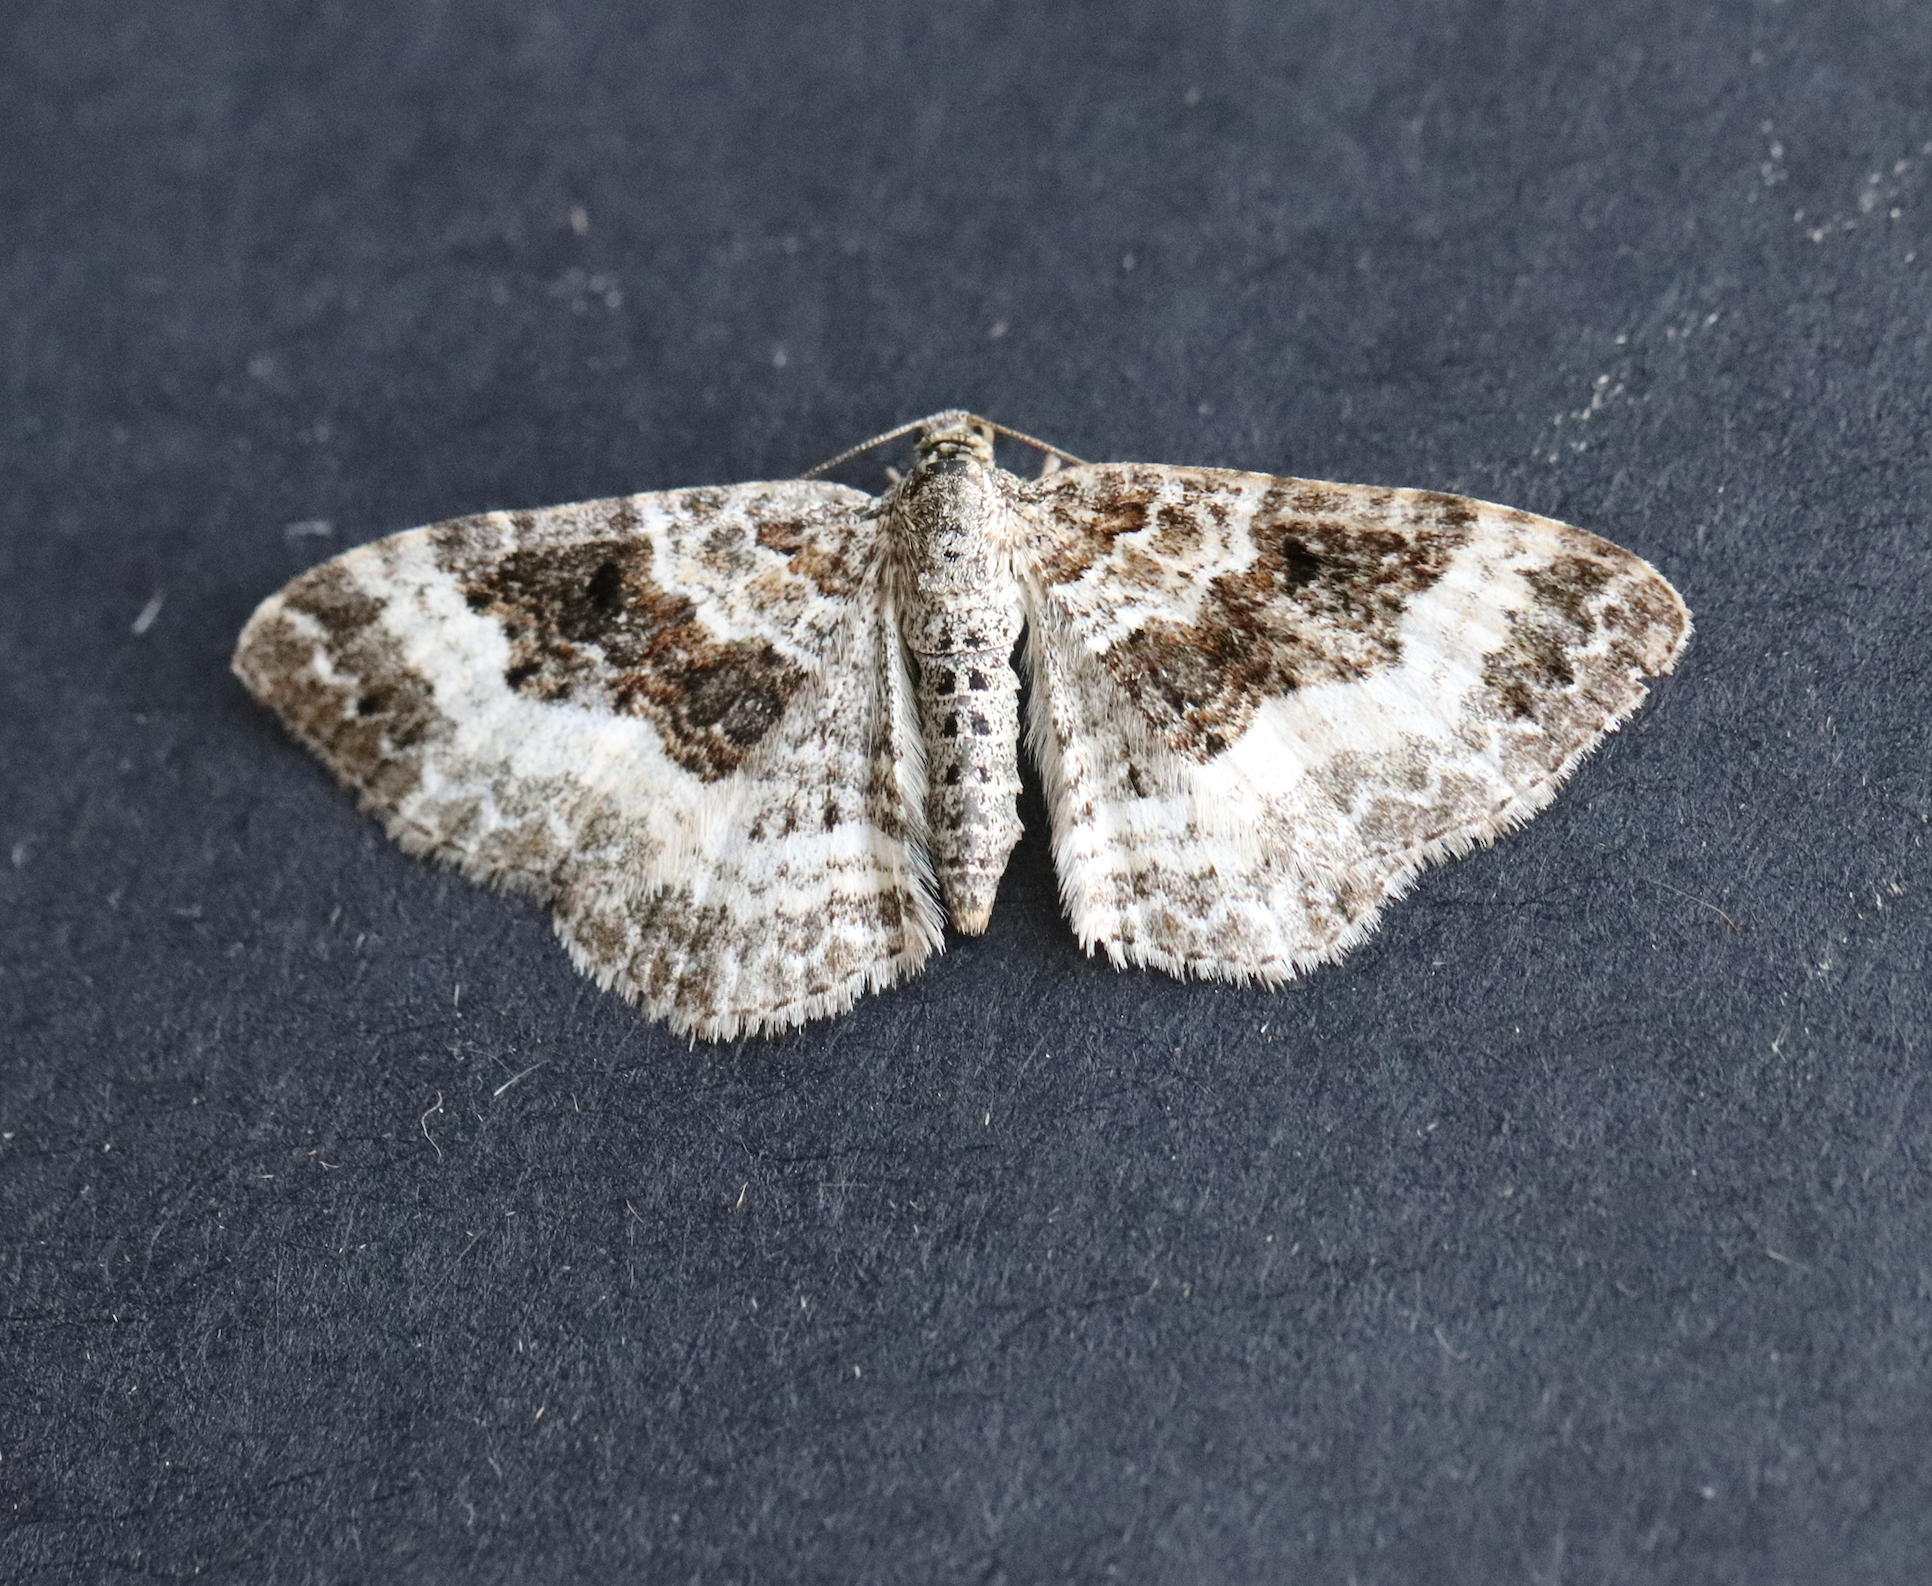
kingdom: Animalia
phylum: Arthropoda
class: Insecta
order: Lepidoptera
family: Geometridae
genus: Epirrhoe
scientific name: Epirrhoe alternata
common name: Common carpet
